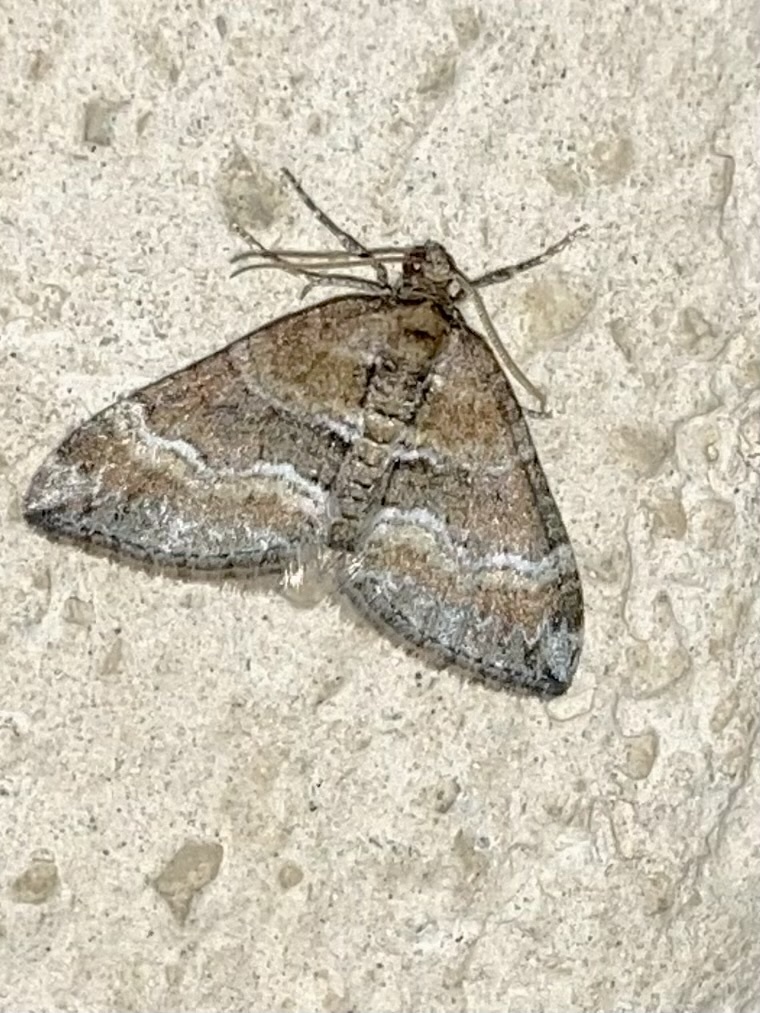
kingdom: Animalia
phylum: Arthropoda
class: Insecta
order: Lepidoptera
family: Geometridae
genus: Perizoma
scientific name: Perizoma bifaciata
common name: Barred rivulet
